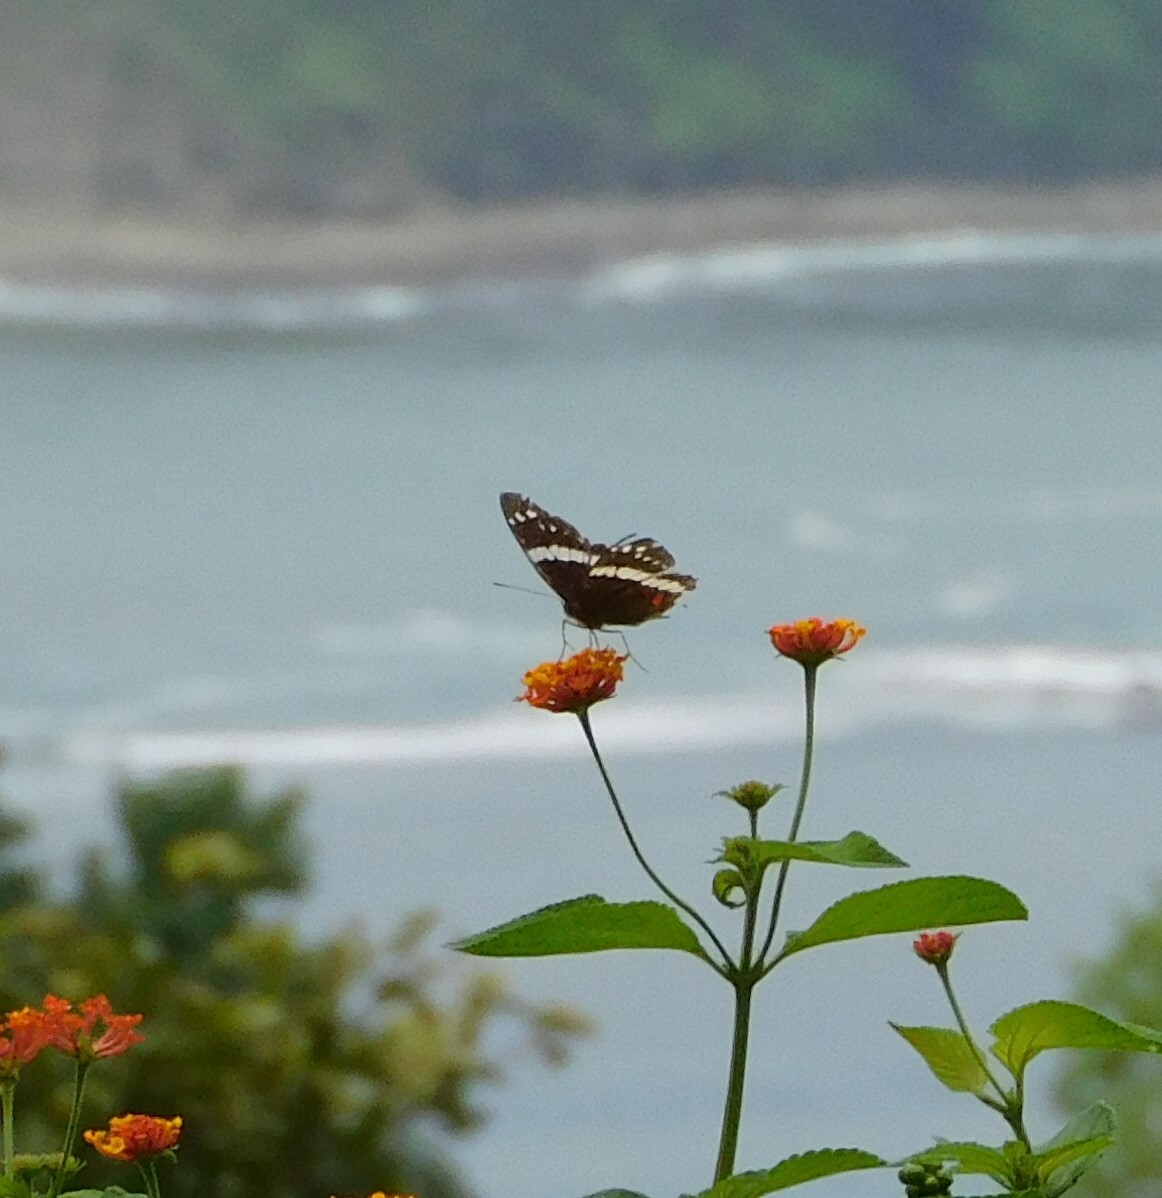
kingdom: Animalia
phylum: Arthropoda
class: Insecta
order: Lepidoptera
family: Nymphalidae
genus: Anartia
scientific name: Anartia fatima
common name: Banded peacock
